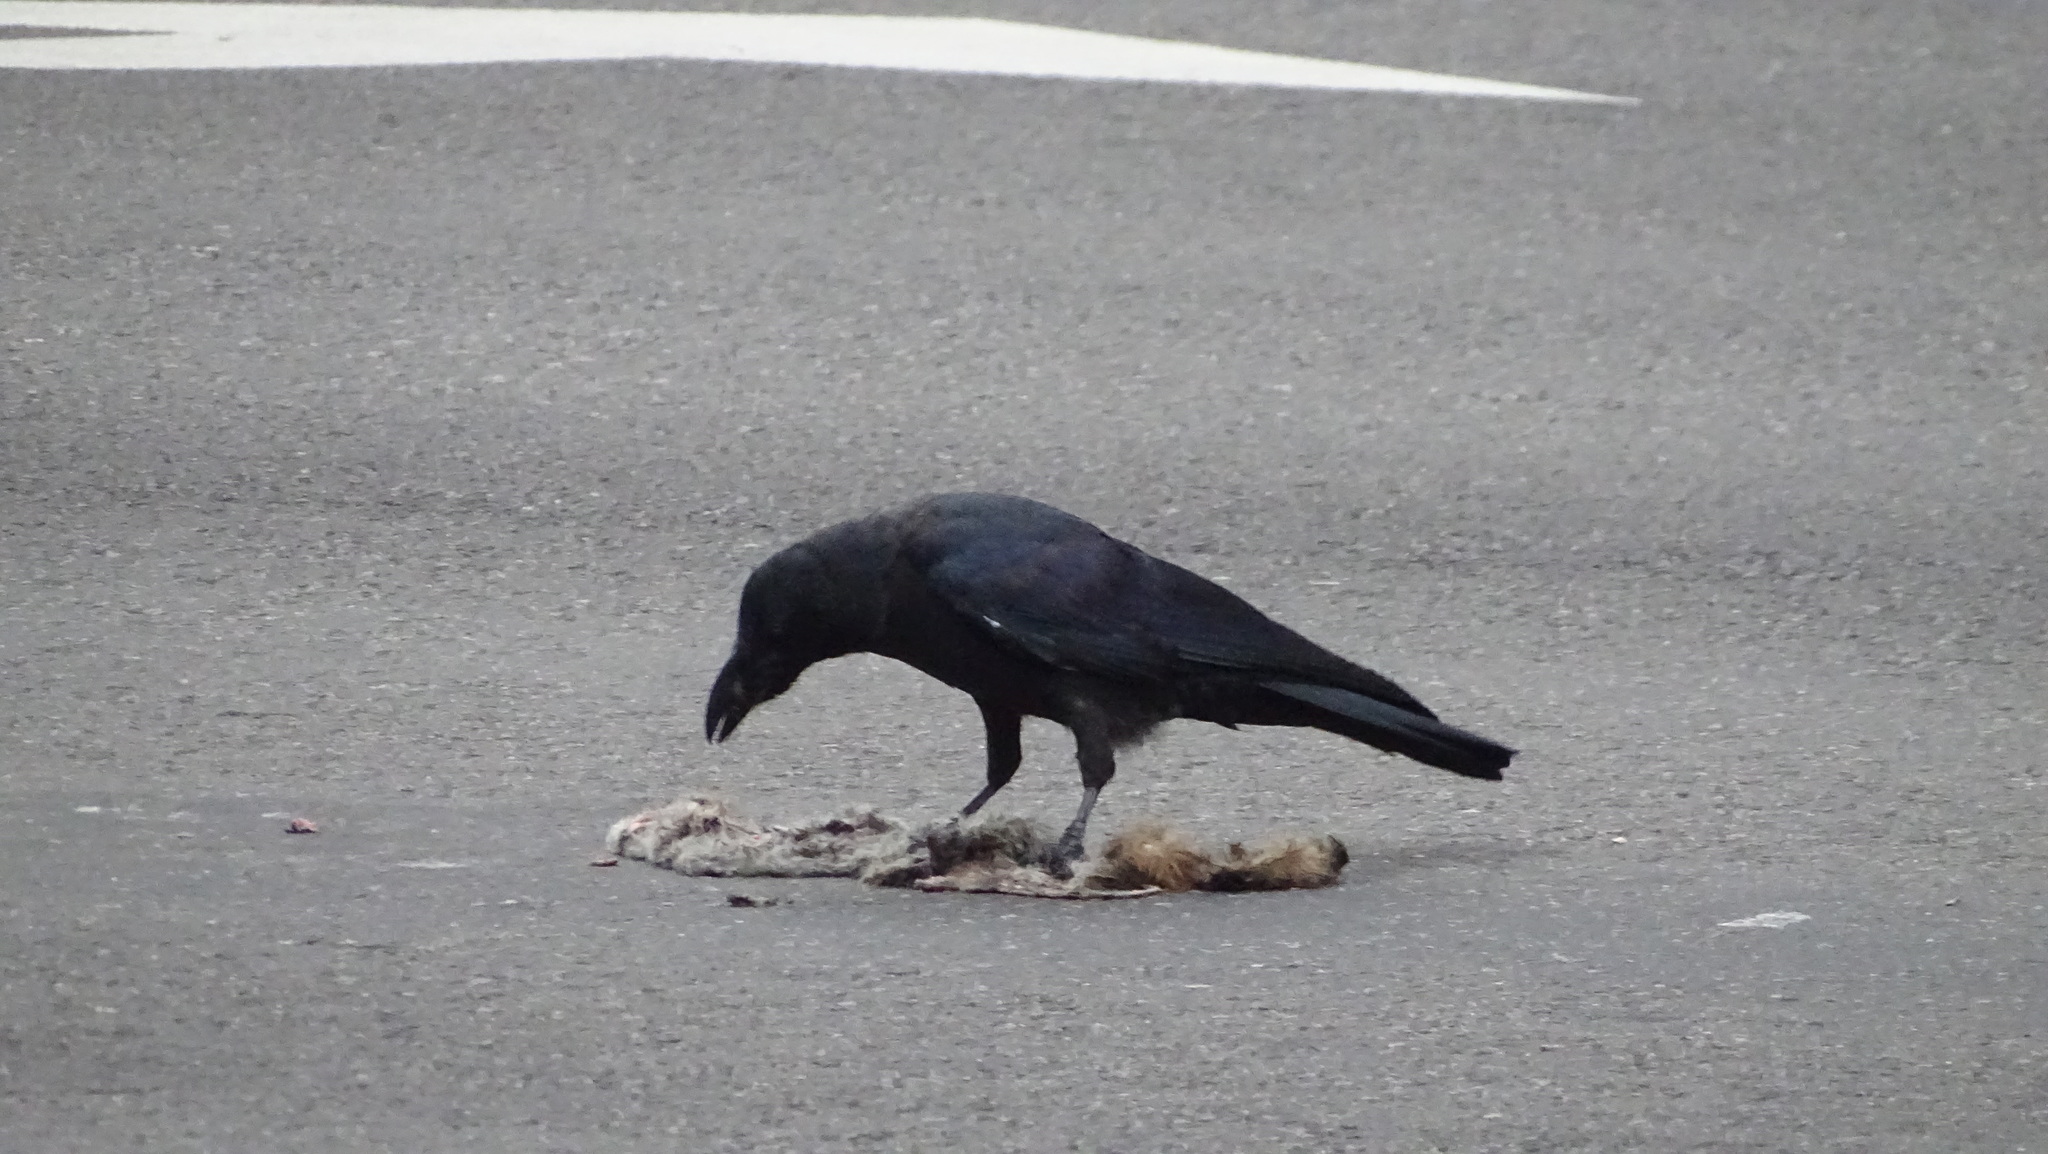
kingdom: Animalia
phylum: Chordata
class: Aves
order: Passeriformes
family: Corvidae
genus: Corvus
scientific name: Corvus macrorhynchos
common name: Large-billed crow
